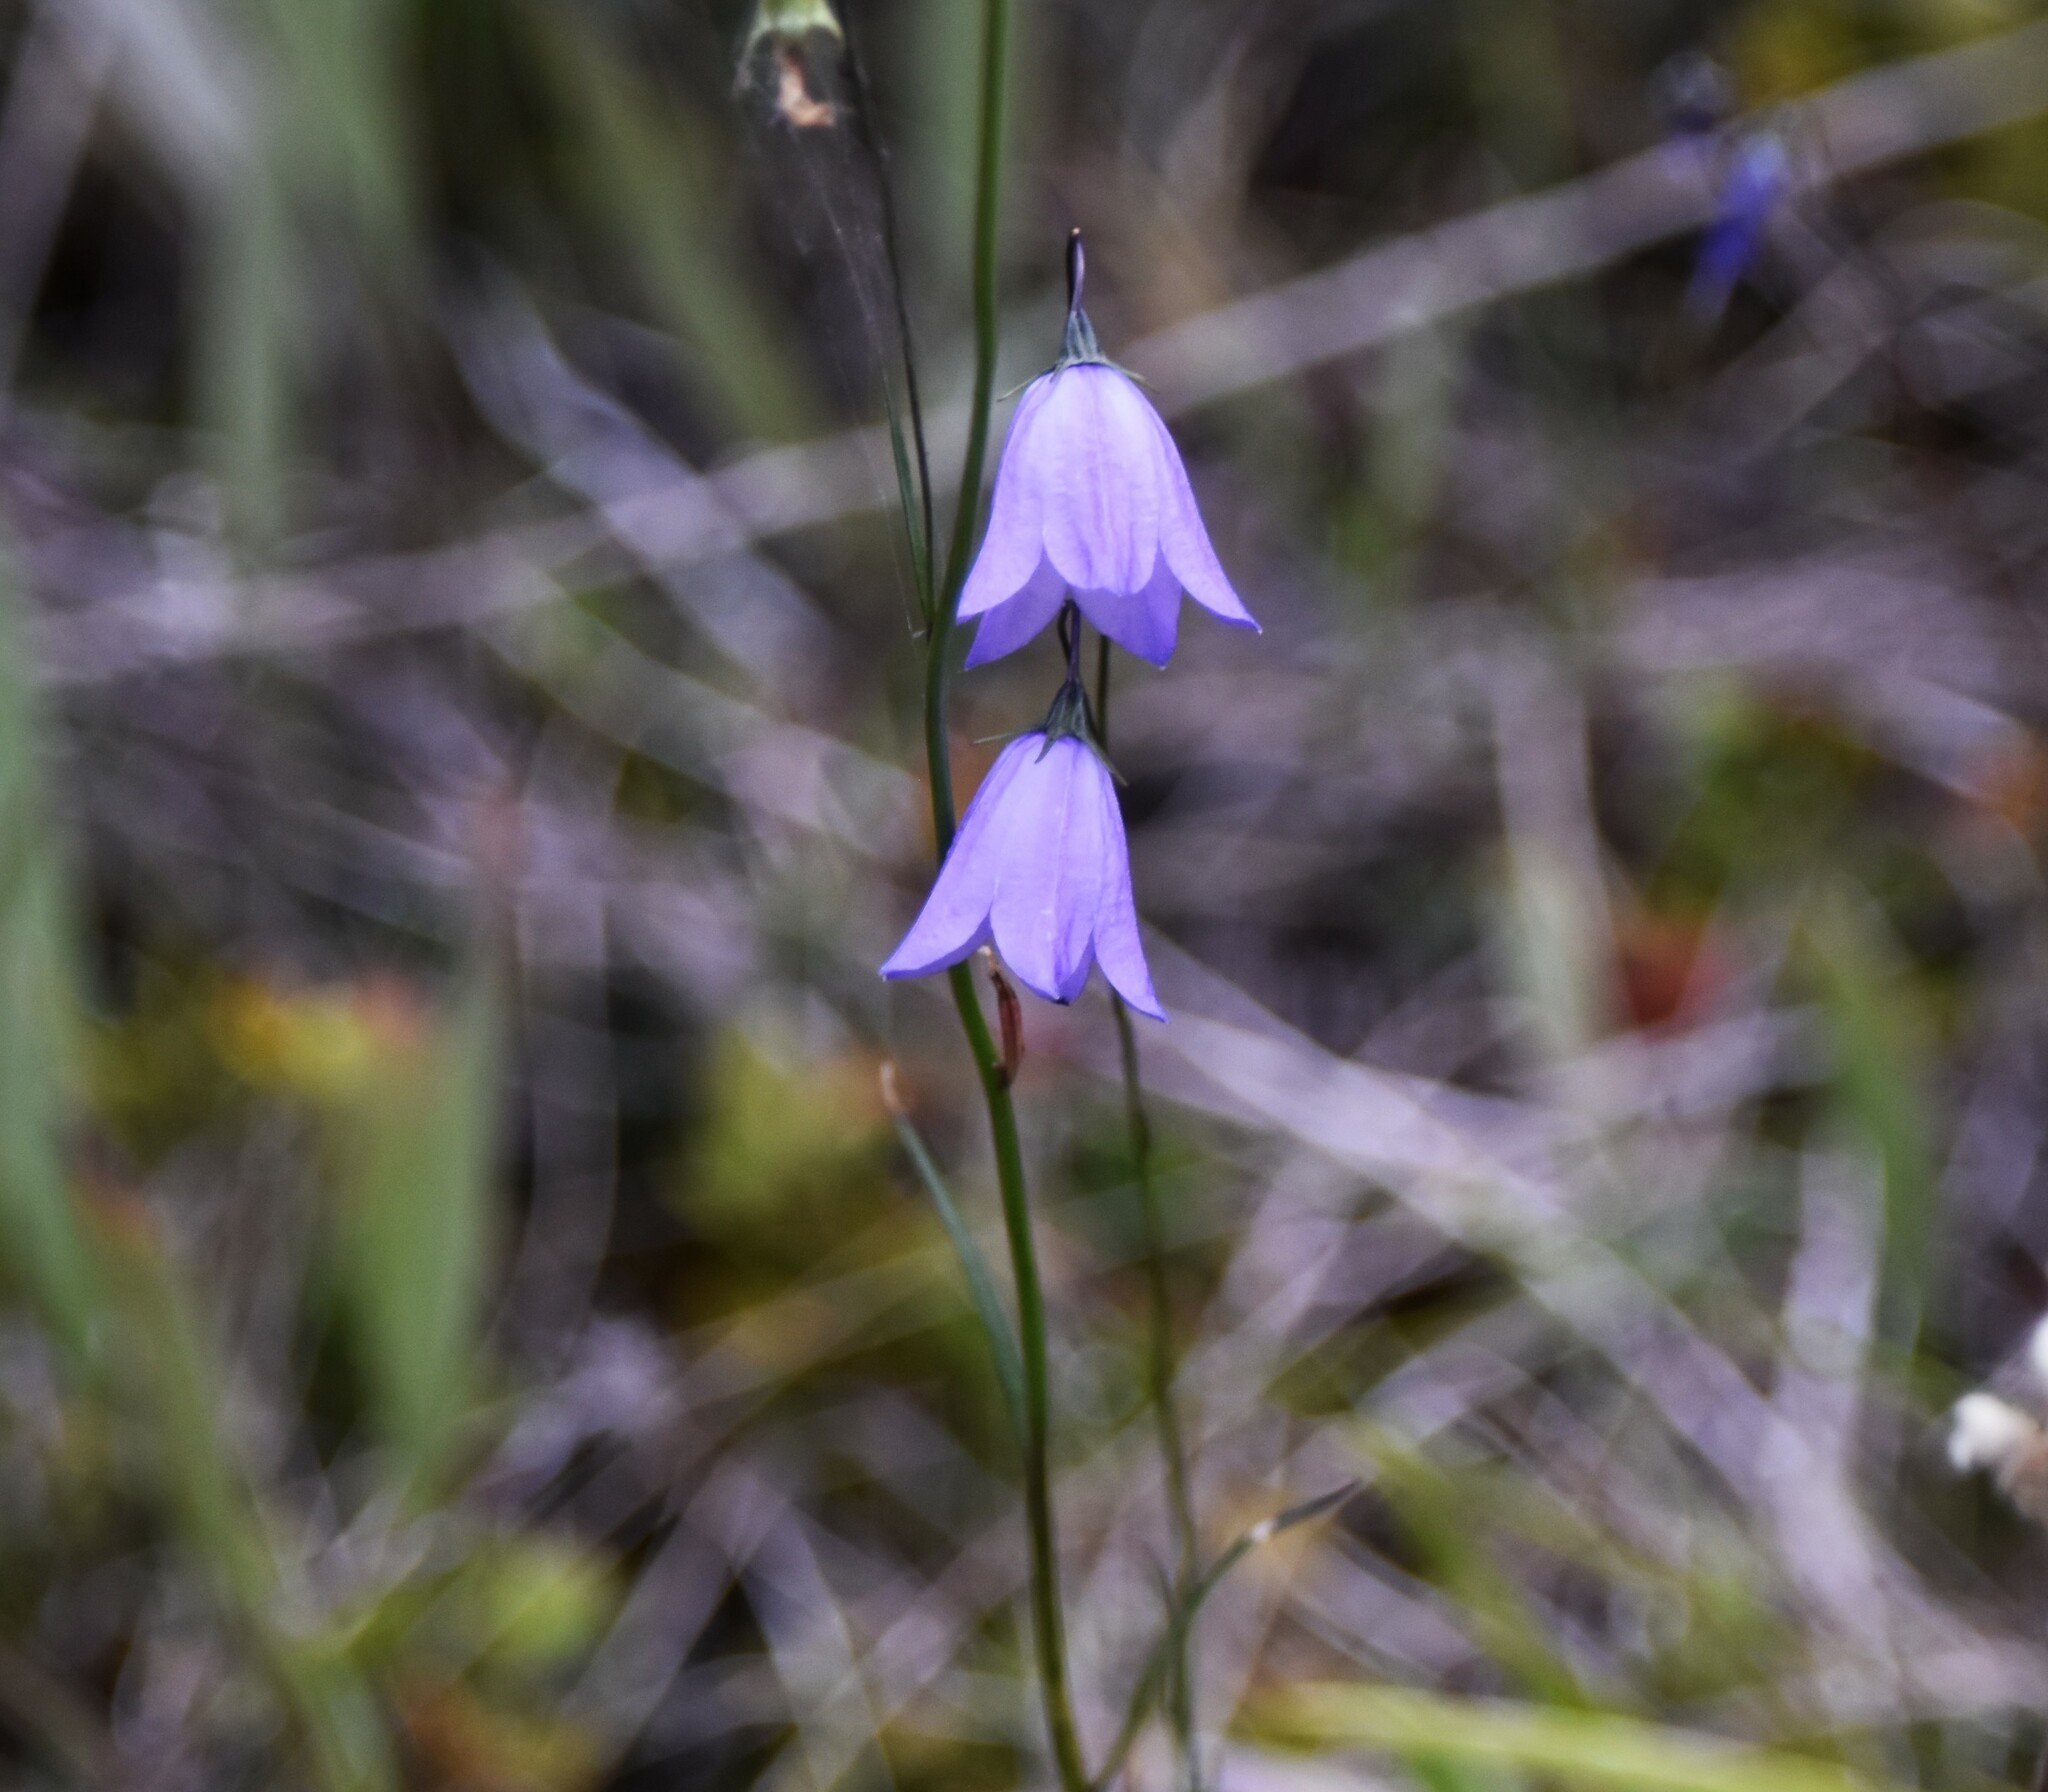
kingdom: Plantae
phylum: Tracheophyta
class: Magnoliopsida
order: Asterales
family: Campanulaceae
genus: Campanula
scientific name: Campanula alaskana
